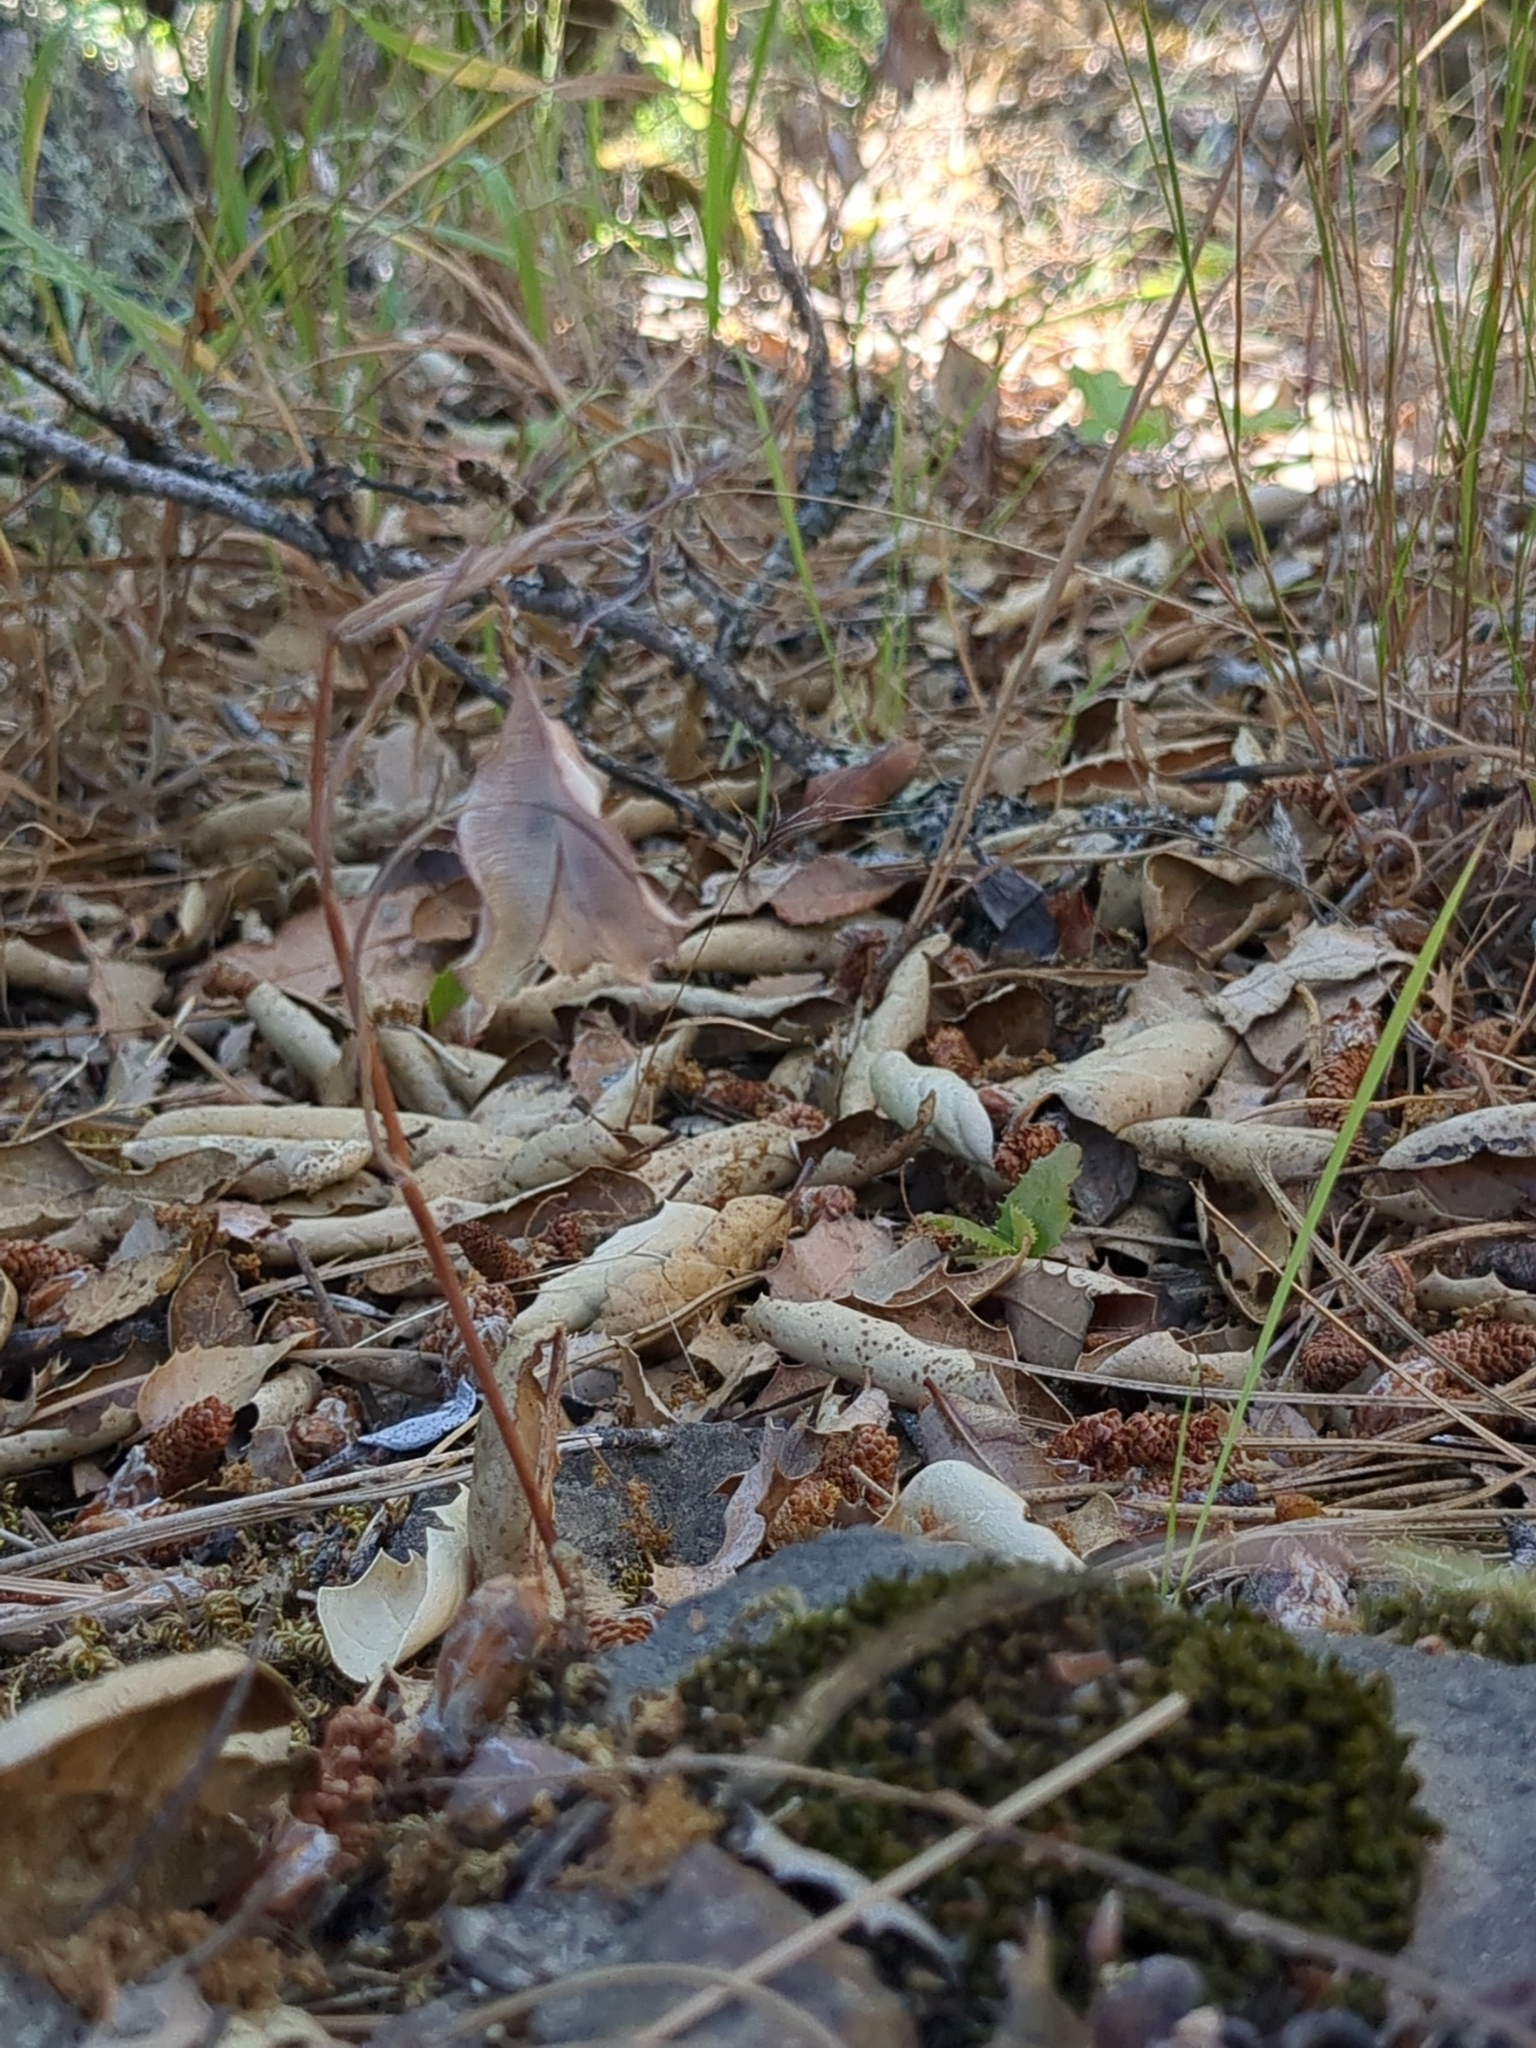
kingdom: Plantae
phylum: Tracheophyta
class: Liliopsida
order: Liliales
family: Liliaceae
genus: Calochortus
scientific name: Calochortus pulchellus
